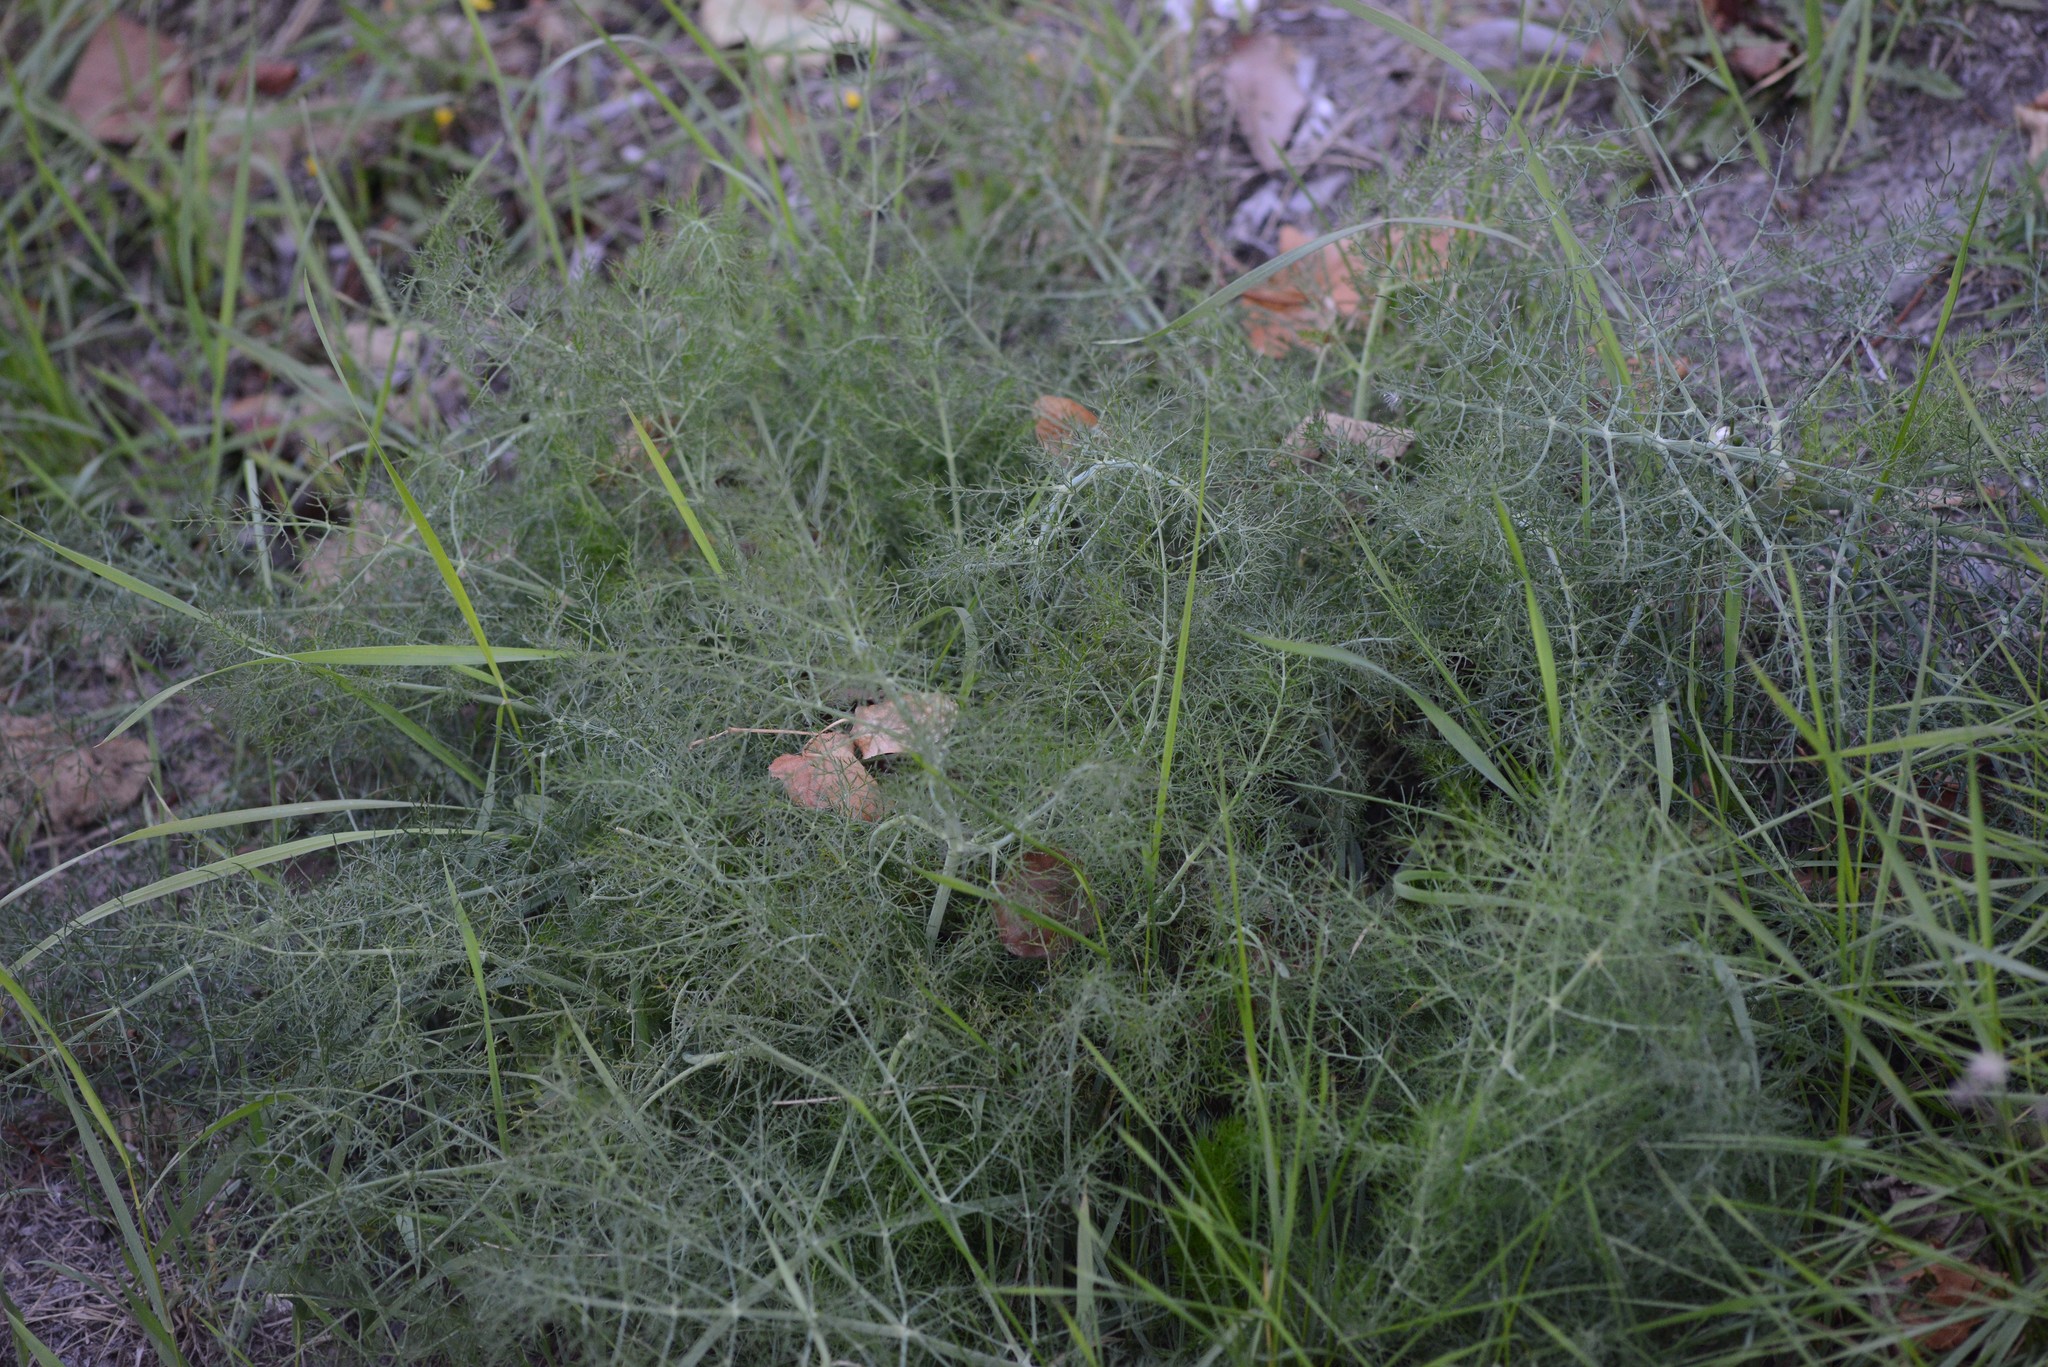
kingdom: Plantae
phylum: Tracheophyta
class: Magnoliopsida
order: Apiales
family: Apiaceae
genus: Foeniculum
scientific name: Foeniculum vulgare
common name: Fennel
